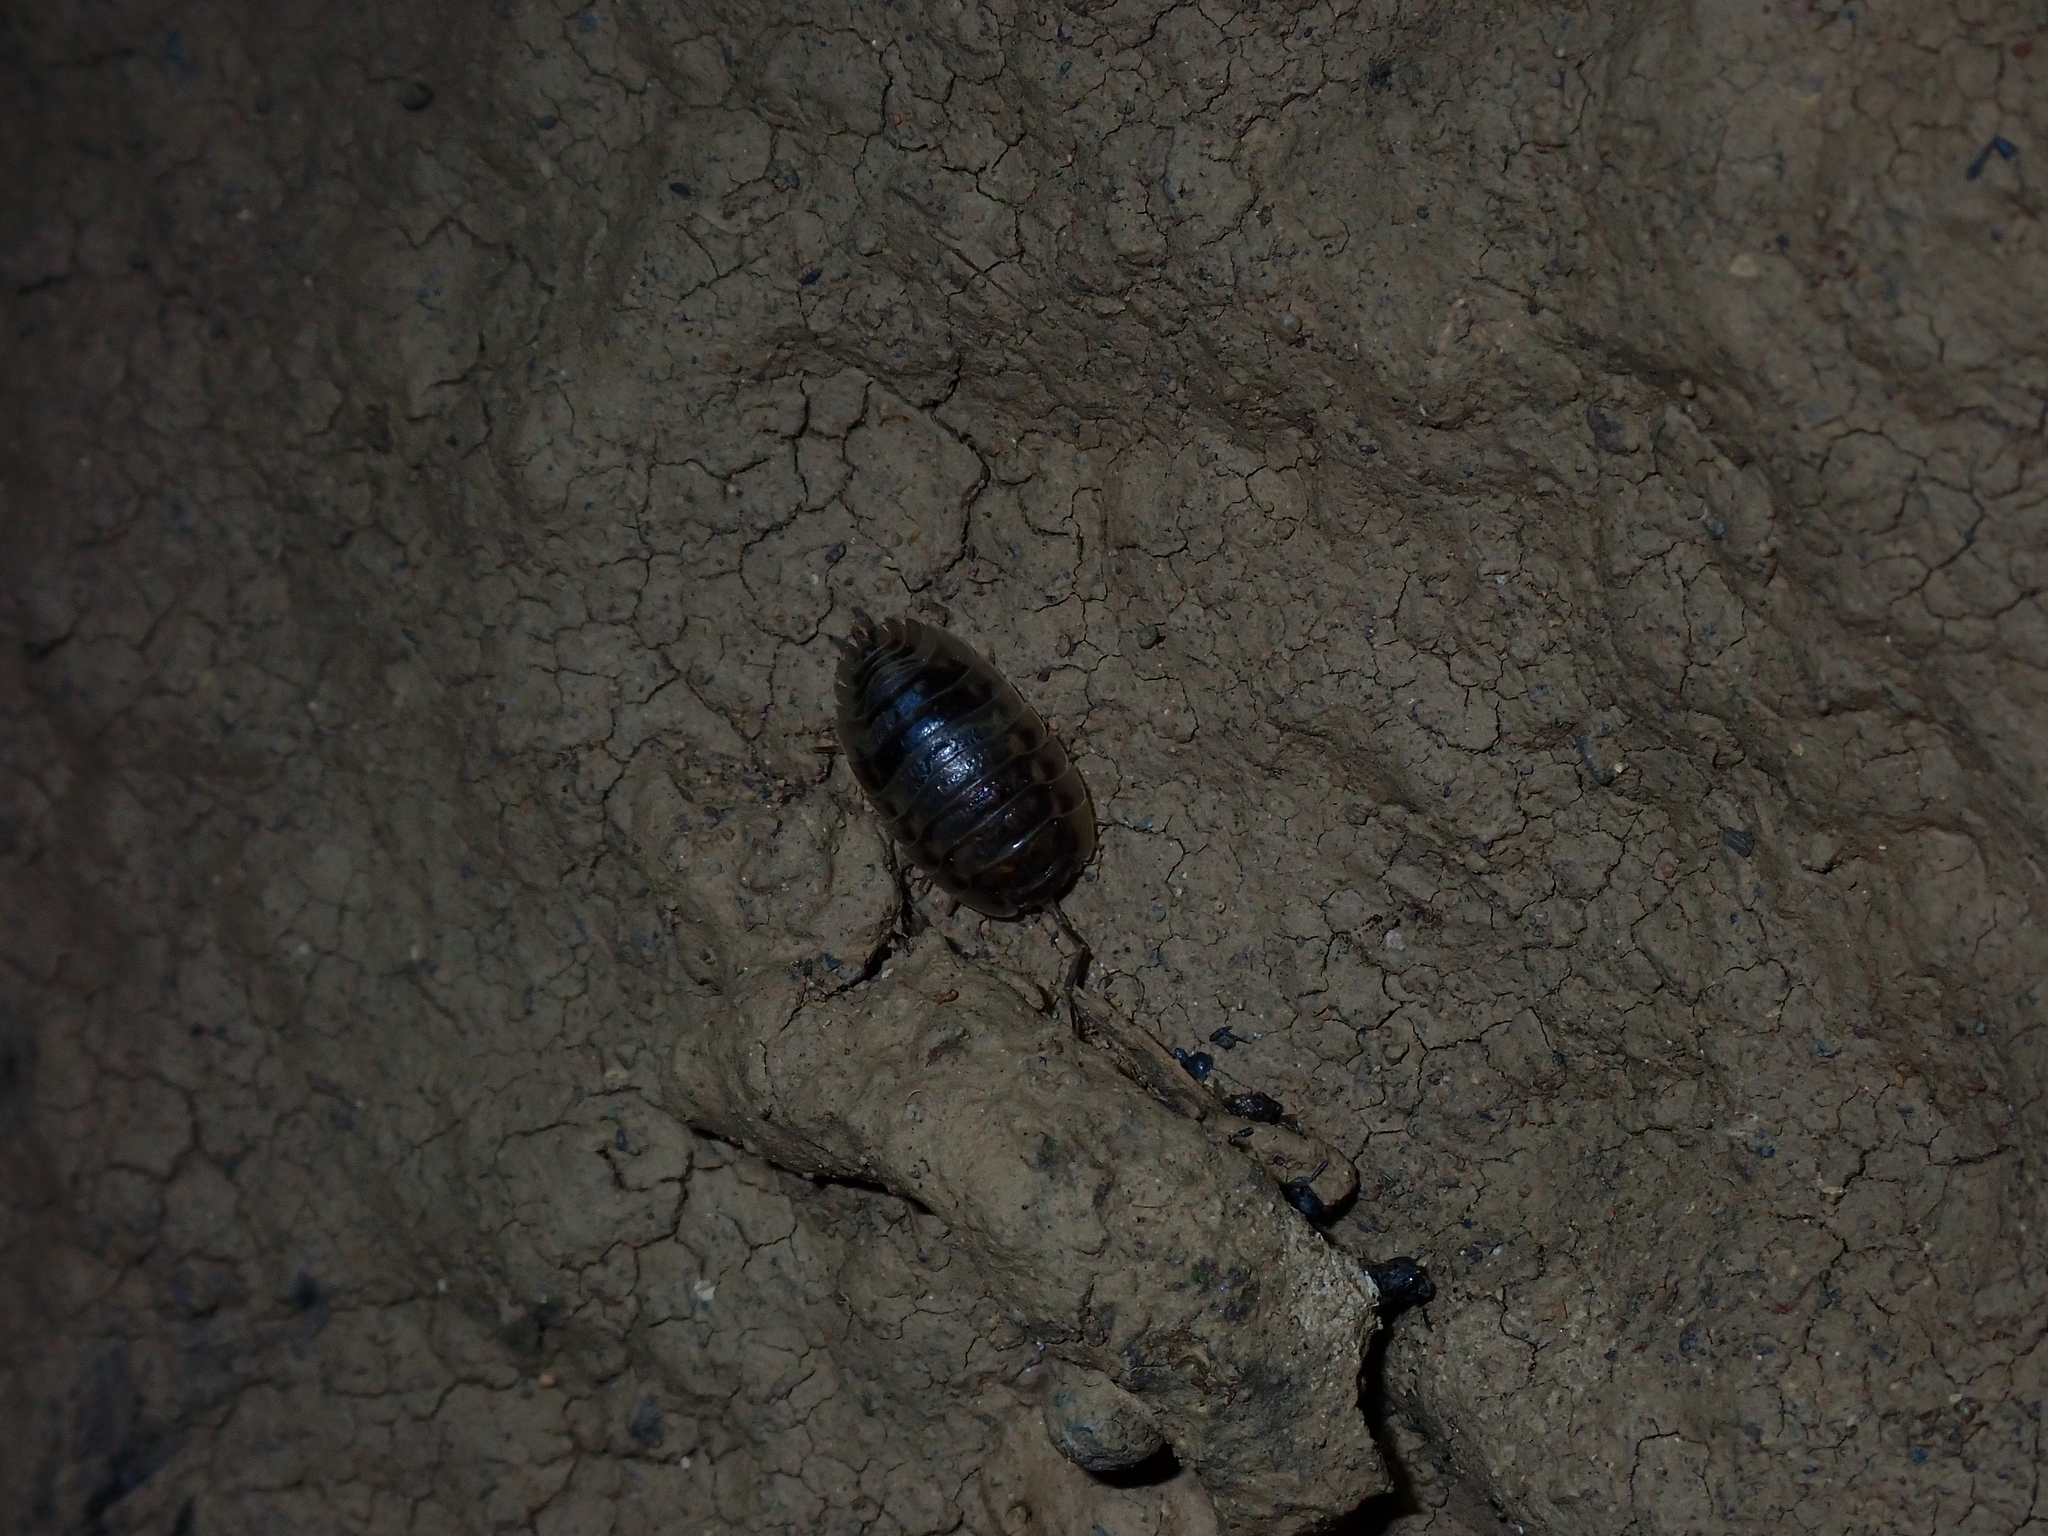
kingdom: Animalia
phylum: Arthropoda
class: Malacostraca
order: Isopoda
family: Oniscidae
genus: Oniscus
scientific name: Oniscus asellus
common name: Common shiny woodlouse
